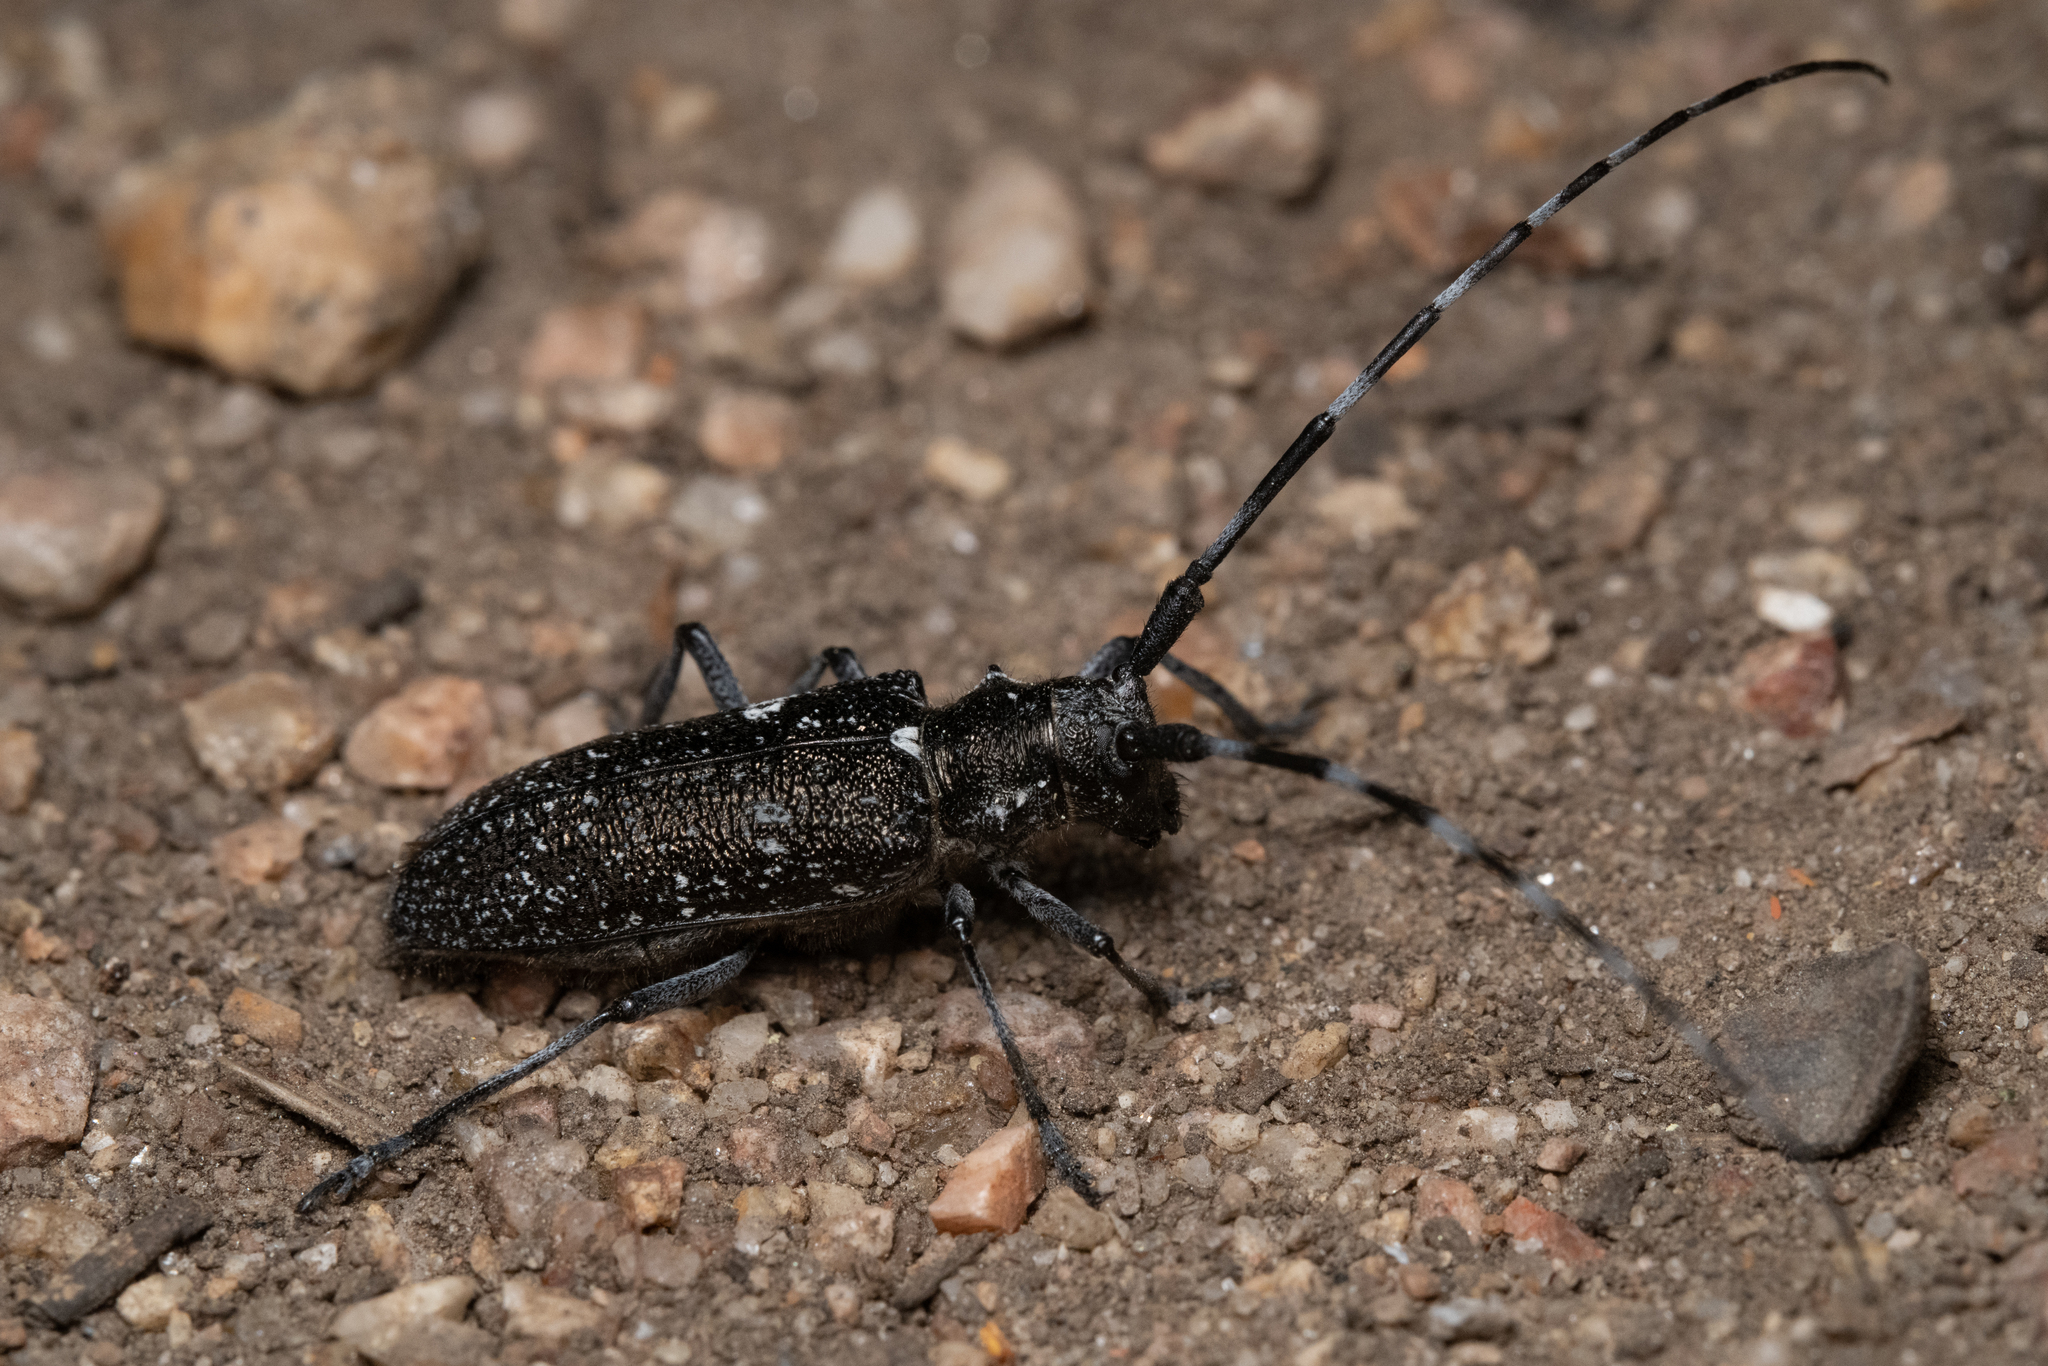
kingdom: Animalia
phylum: Arthropoda
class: Insecta
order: Coleoptera
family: Cerambycidae
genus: Monochamus
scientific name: Monochamus scutellatus
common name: White-spotted sawyer beetle
